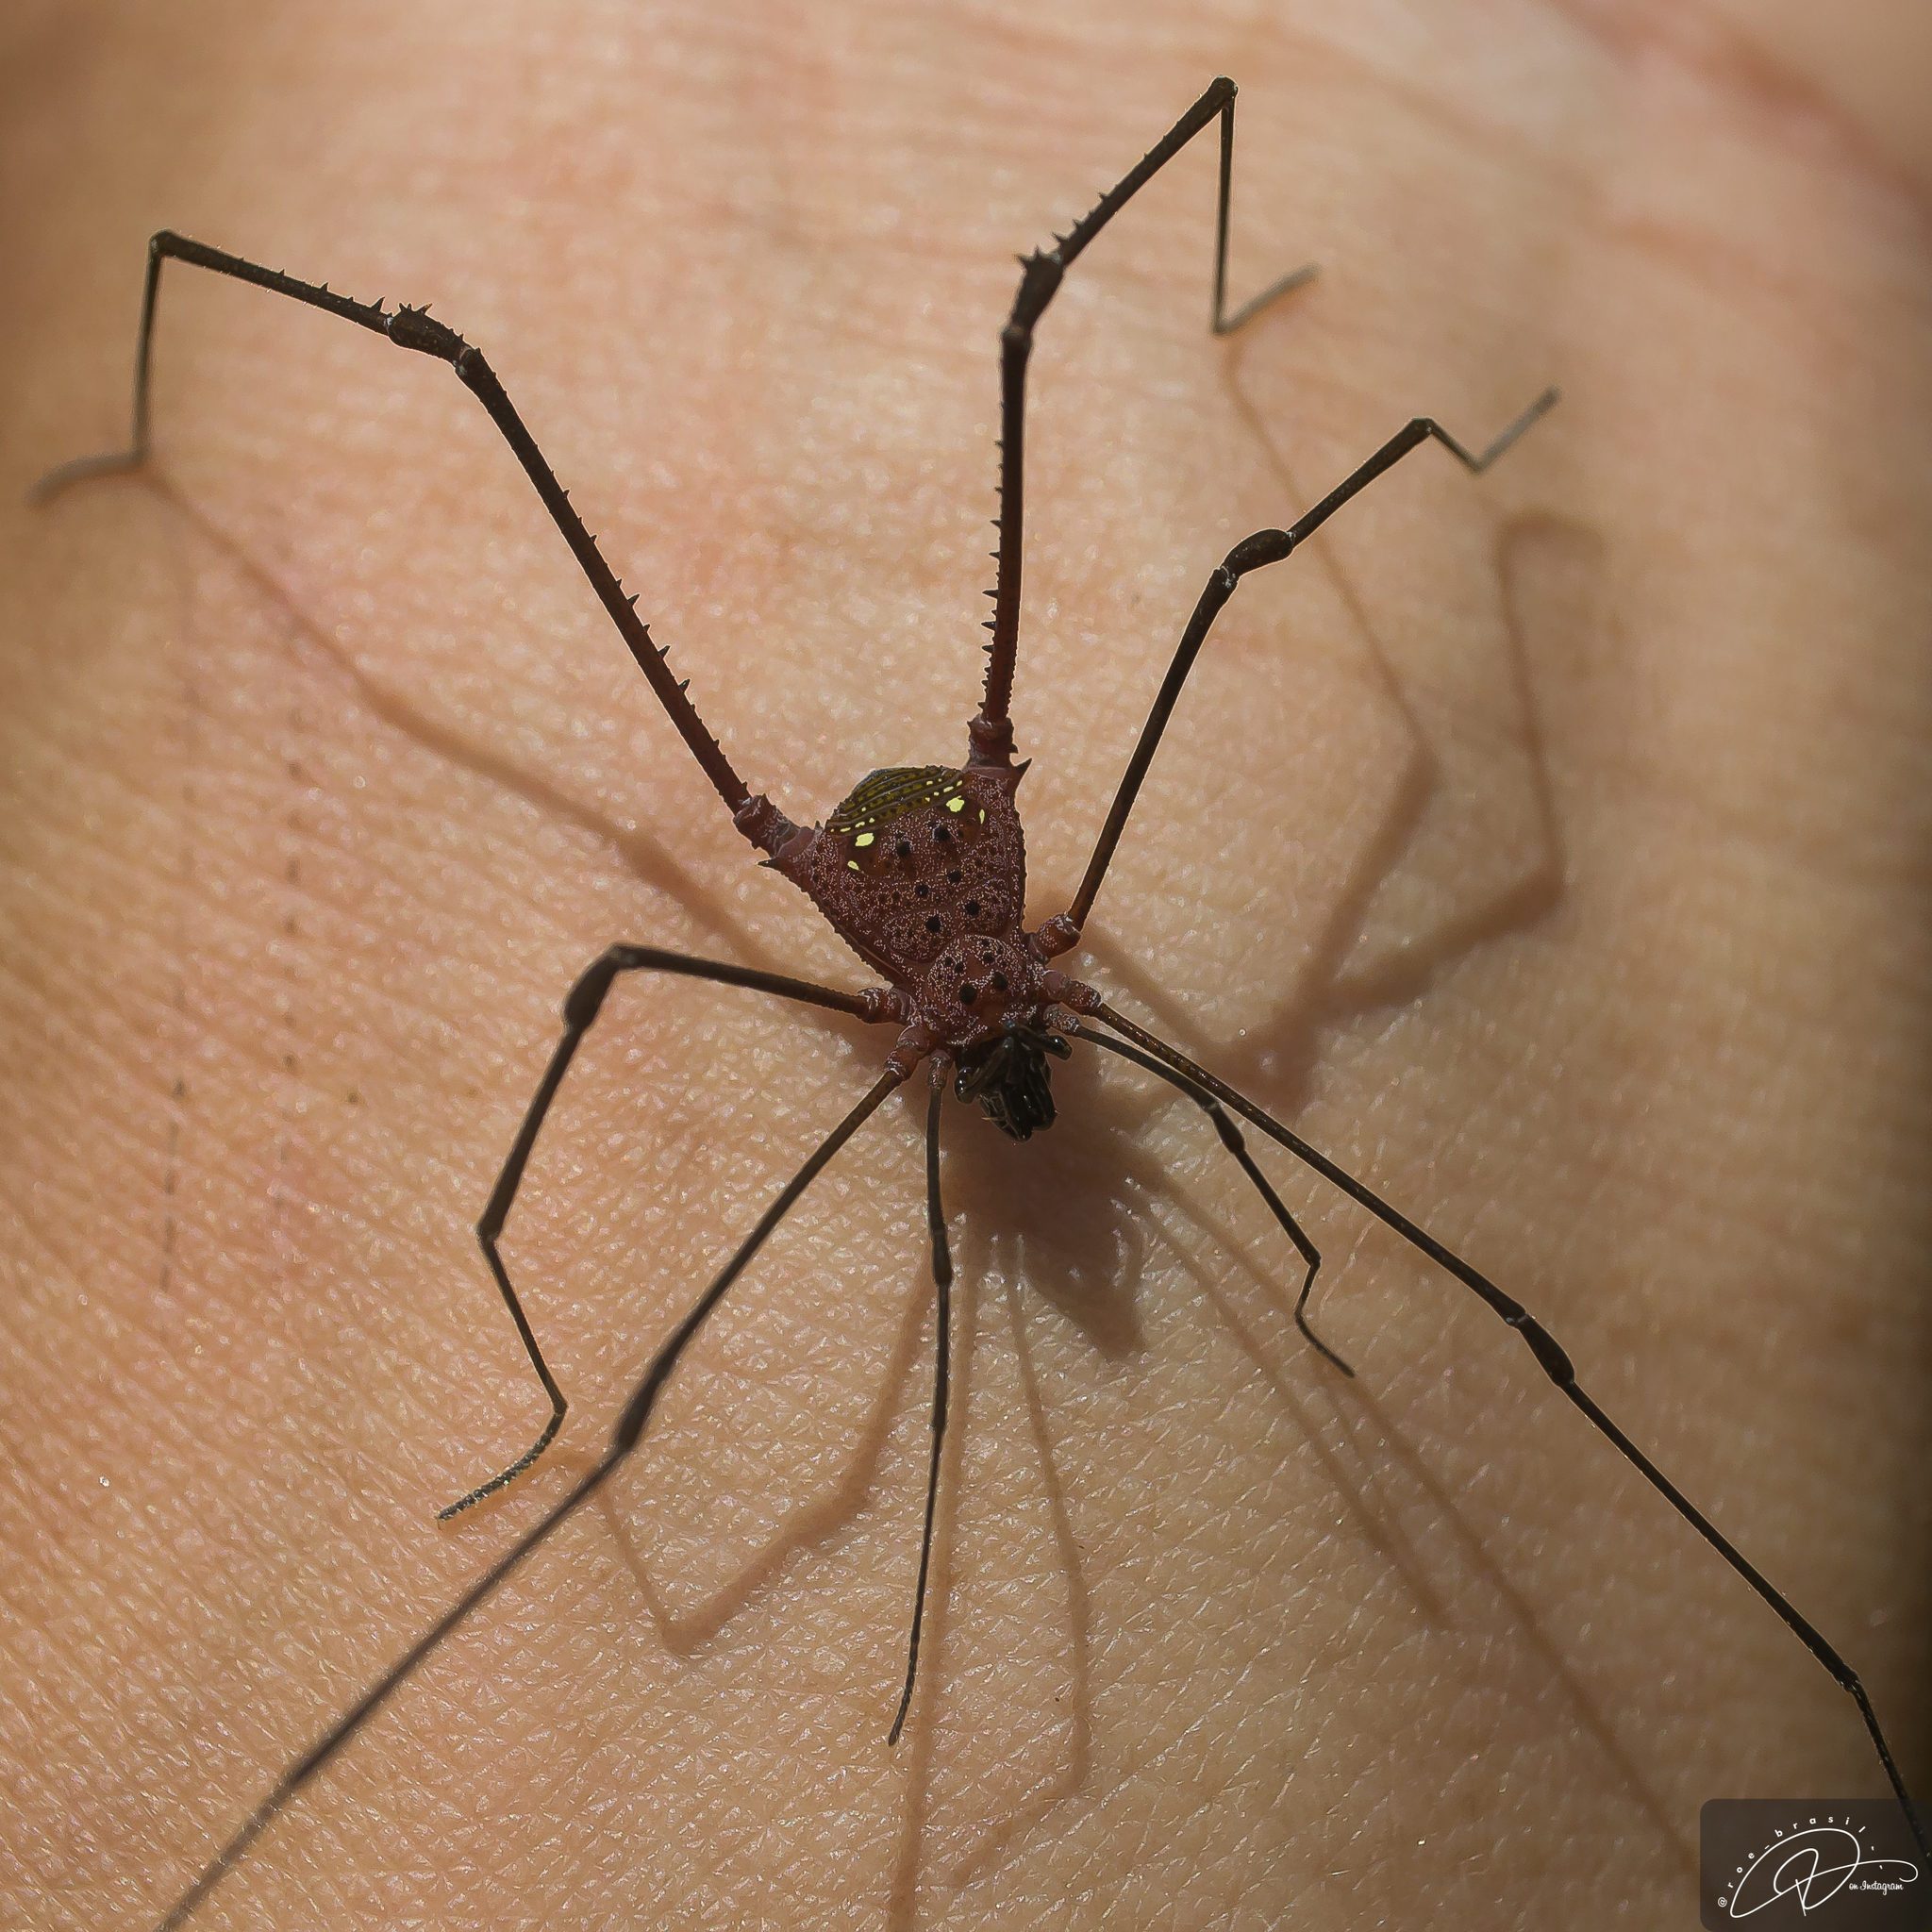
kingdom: Animalia
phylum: Arthropoda
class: Arachnida
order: Opiliones
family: Gonyleptidae
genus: Pristocnemus
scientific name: Pristocnemus albimaculatus
